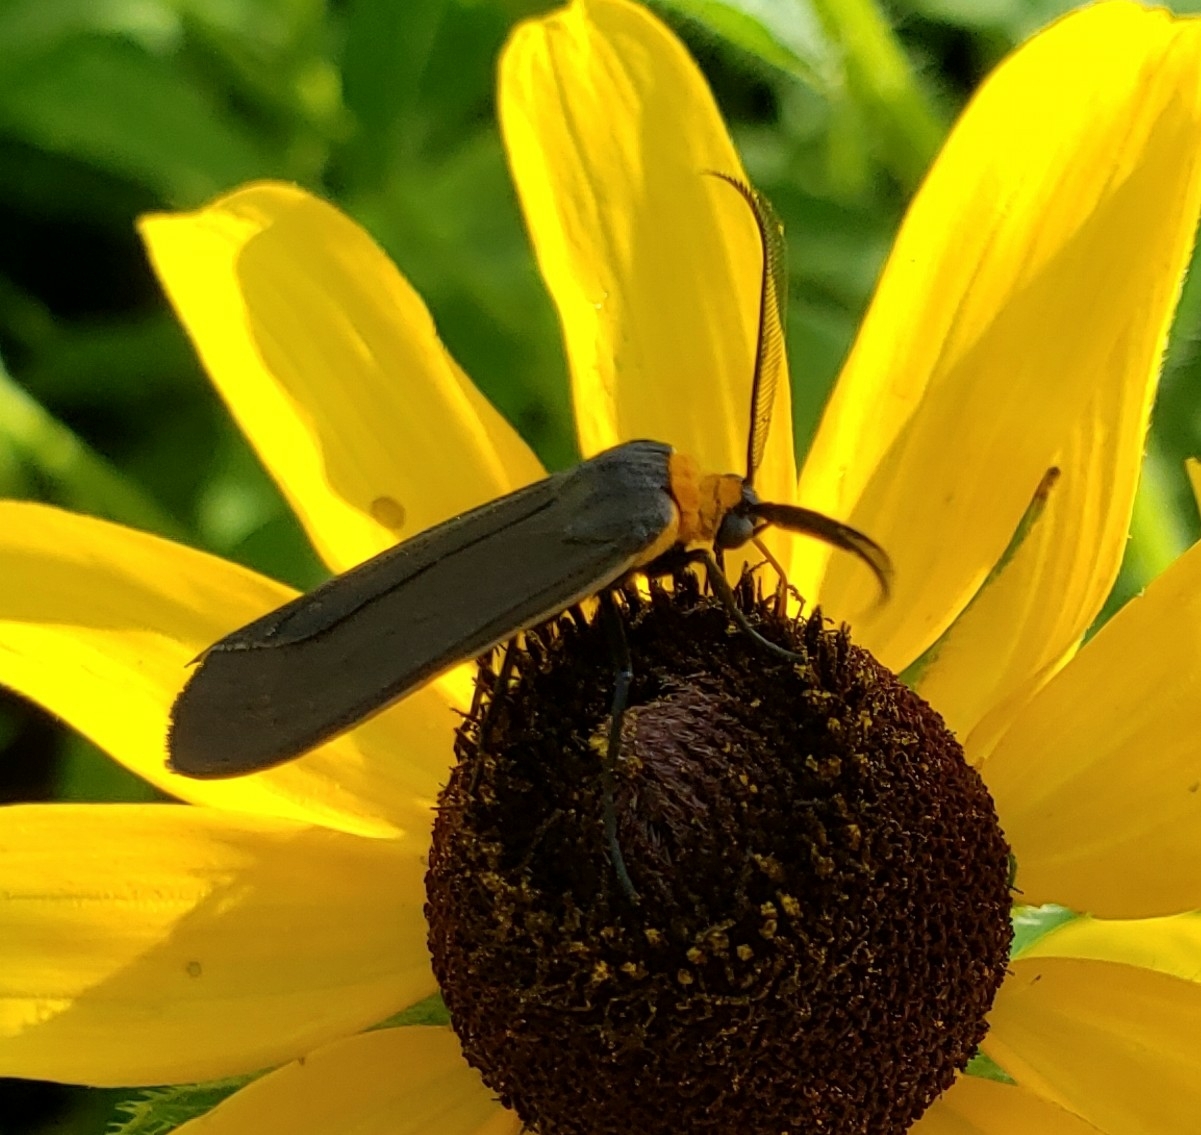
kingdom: Animalia
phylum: Arthropoda
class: Insecta
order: Lepidoptera
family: Erebidae
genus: Cisseps
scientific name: Cisseps fulvicollis
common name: Yellow-collared scape moth
